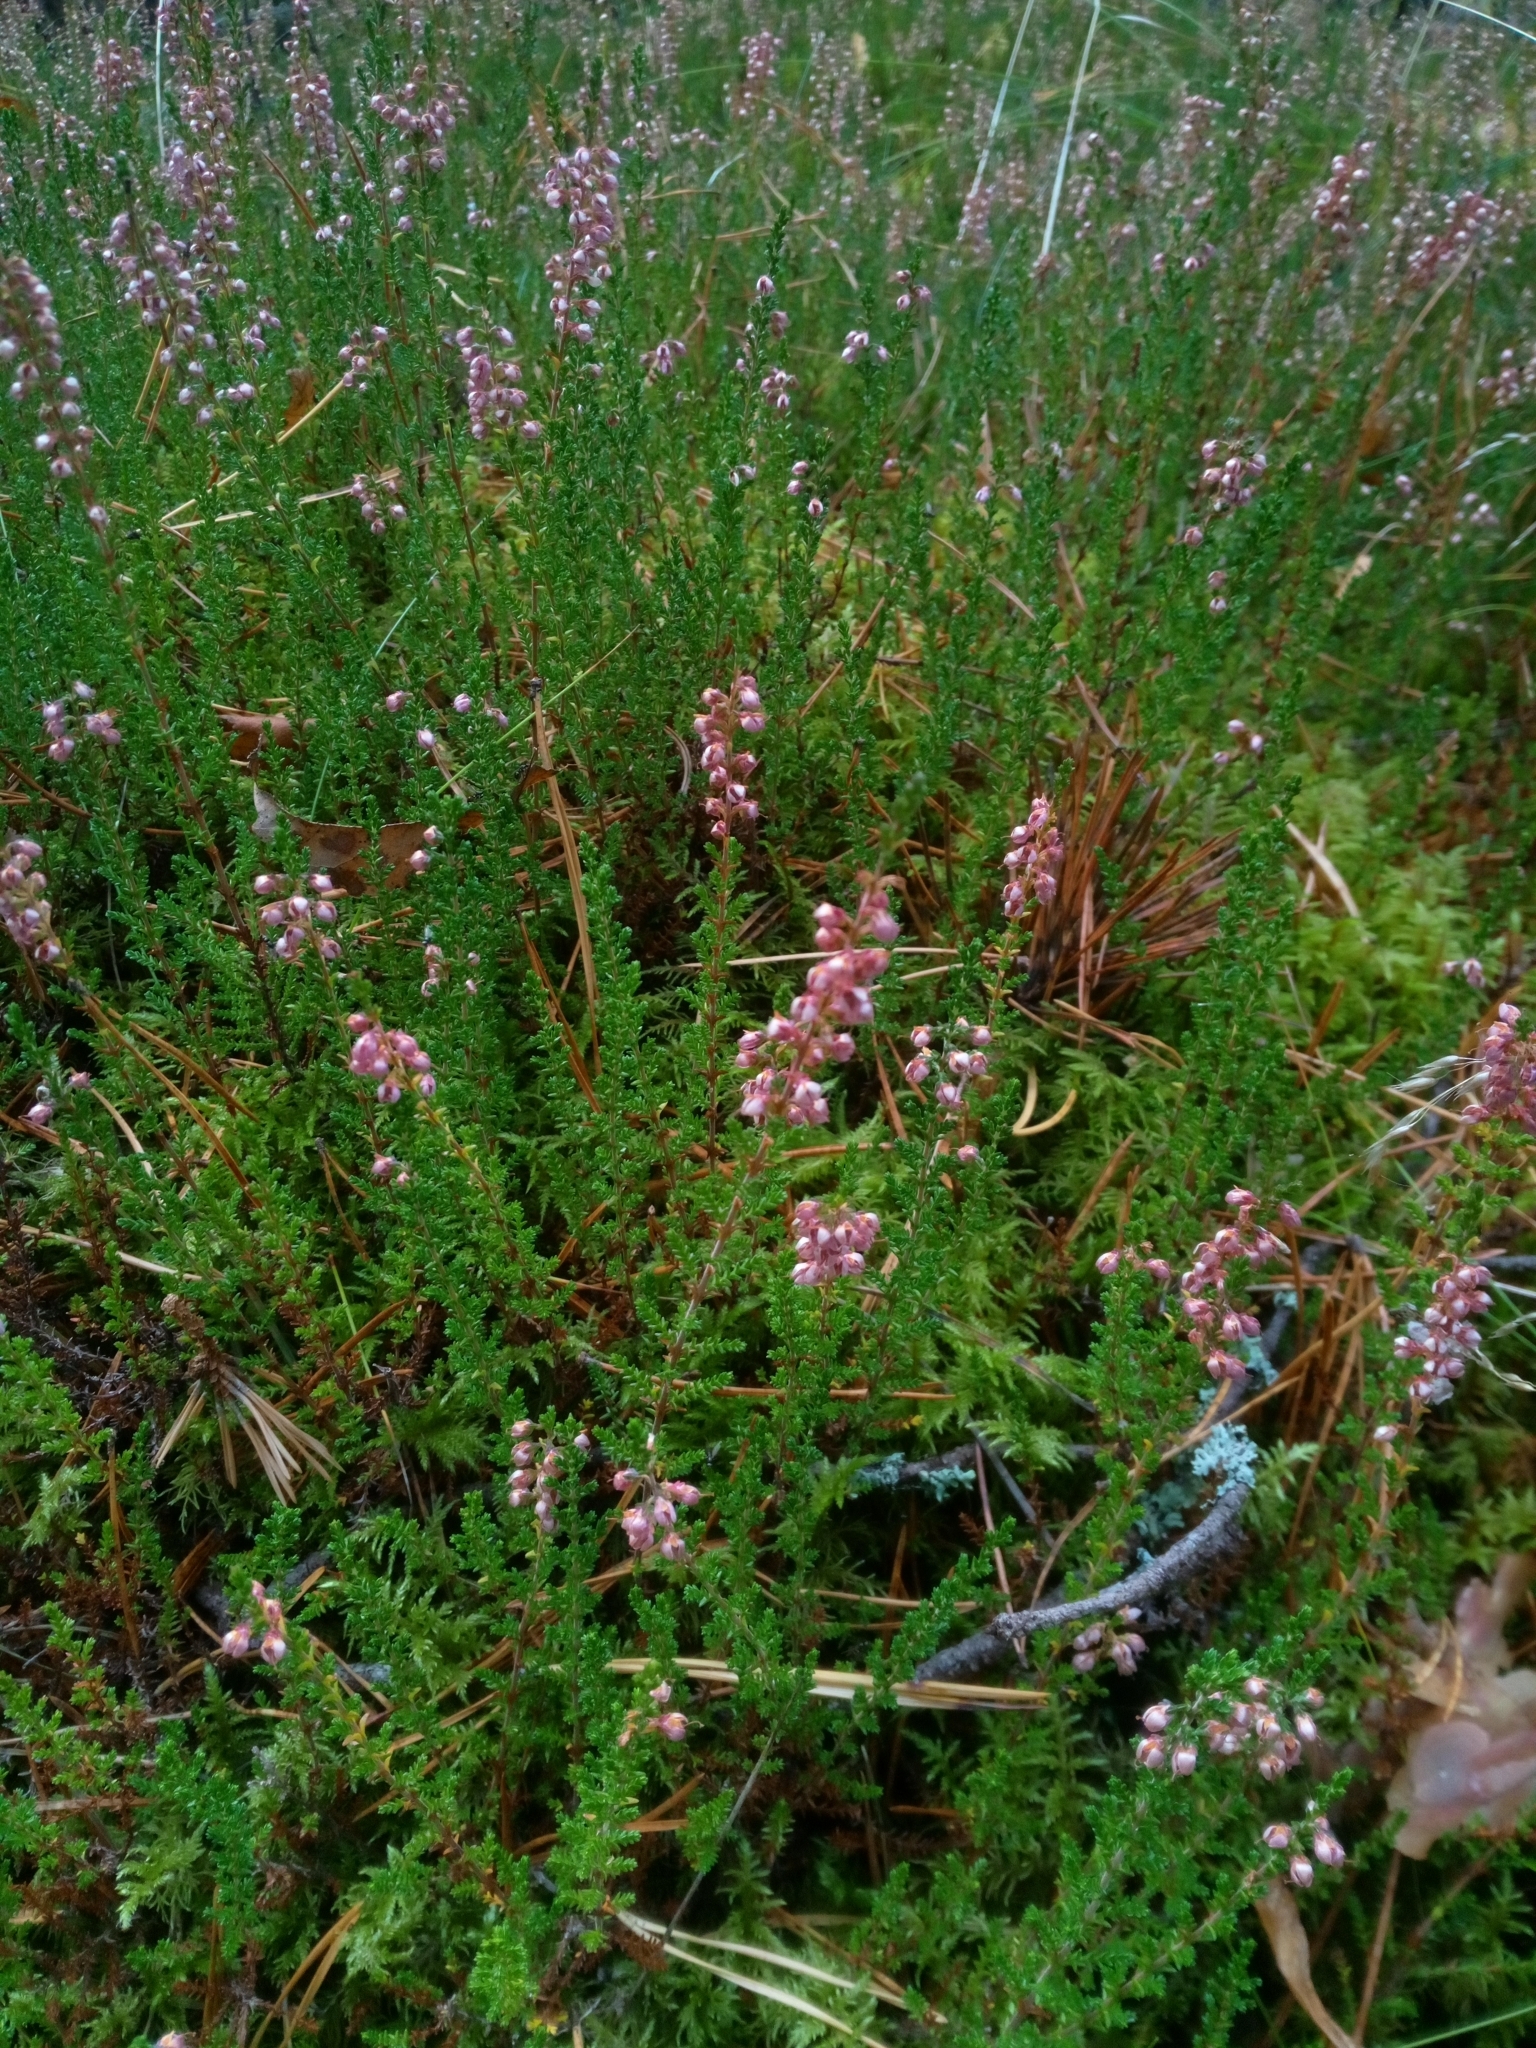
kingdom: Plantae
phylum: Tracheophyta
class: Magnoliopsida
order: Ericales
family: Ericaceae
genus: Calluna
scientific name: Calluna vulgaris
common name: Heather
